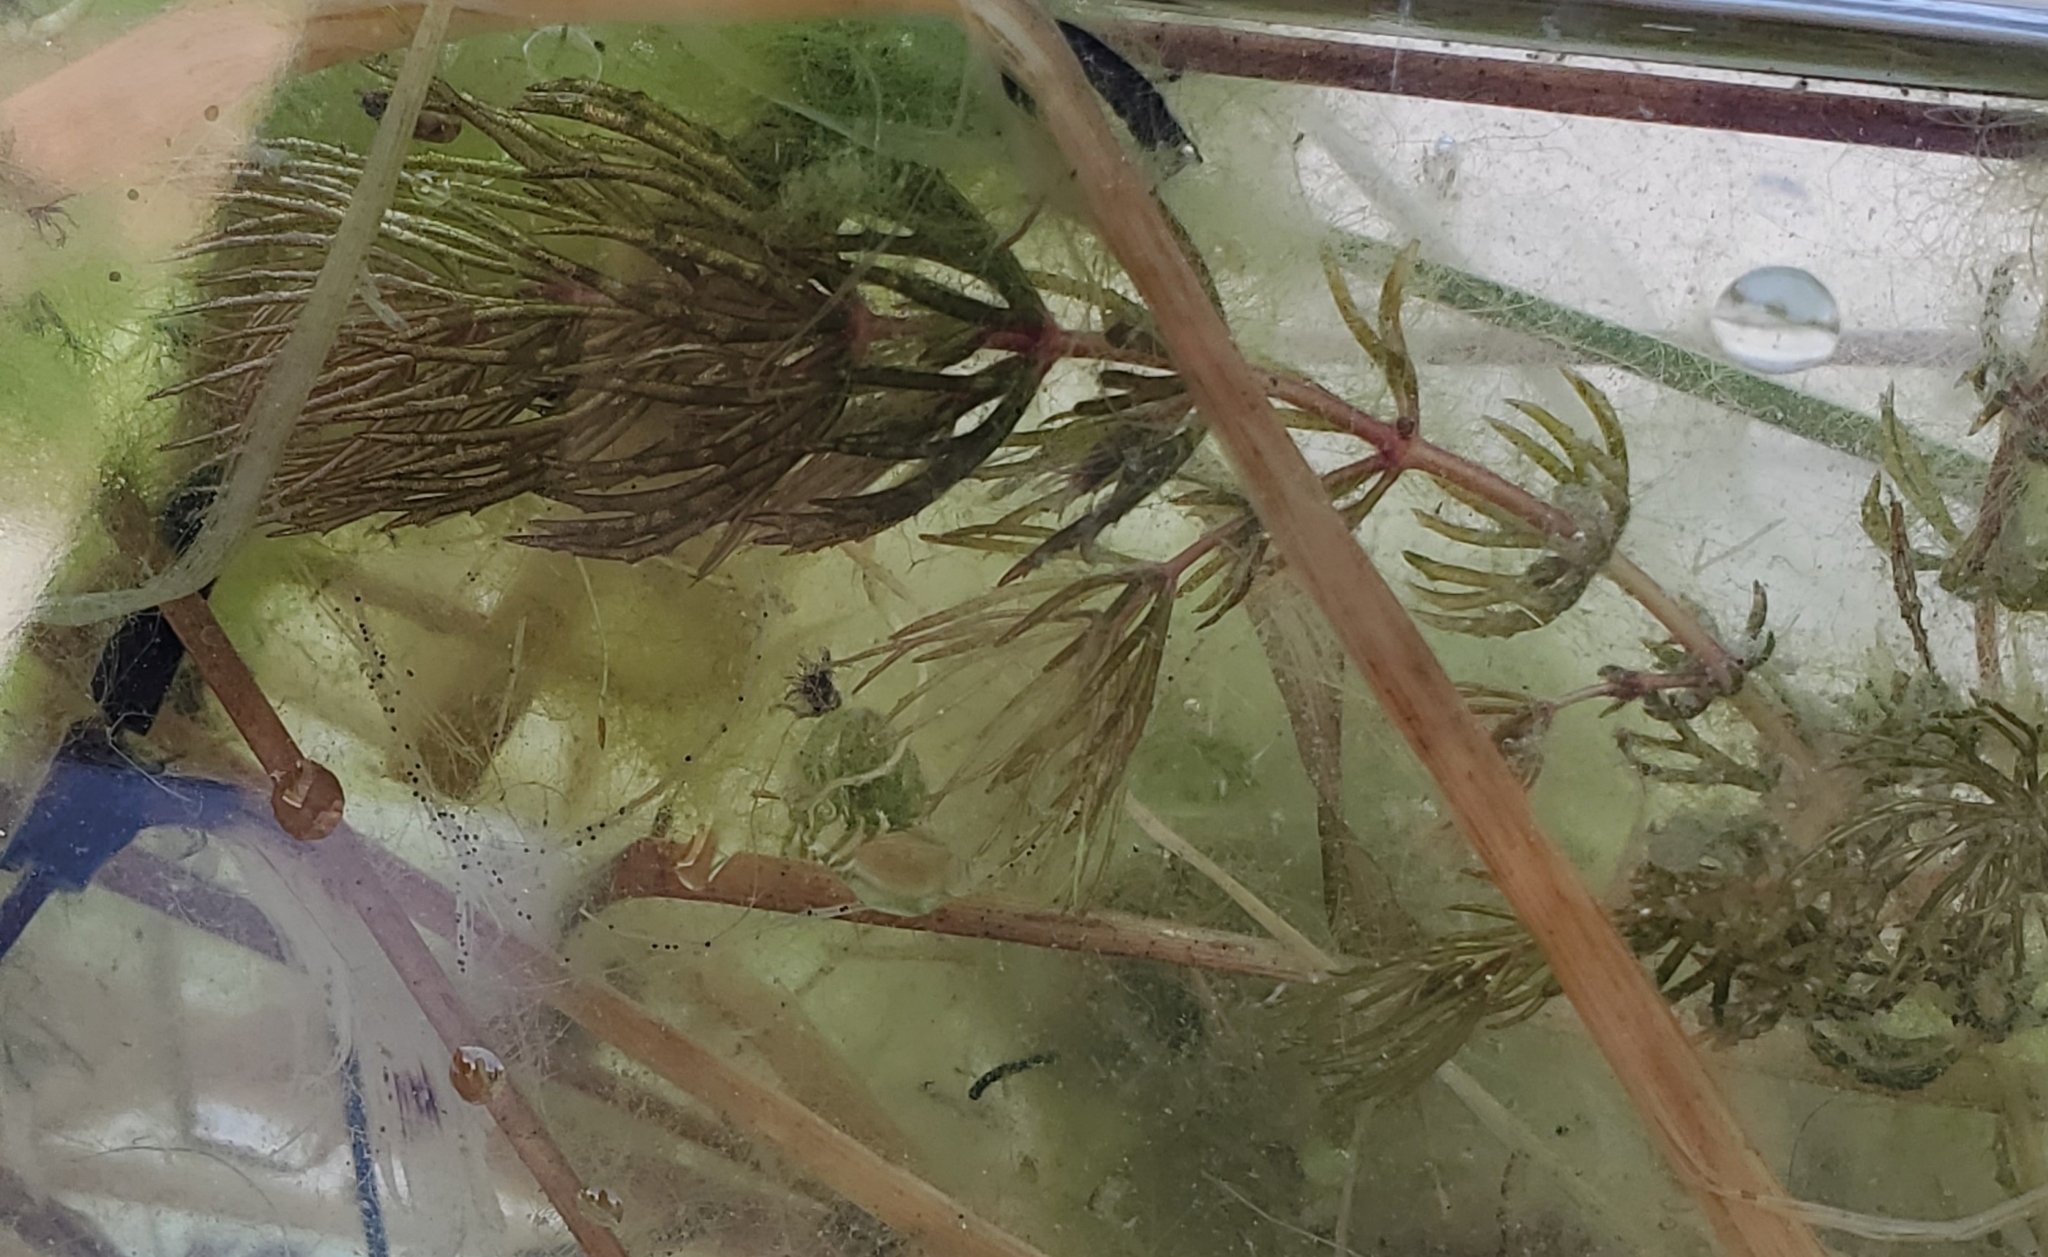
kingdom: Plantae
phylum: Tracheophyta
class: Magnoliopsida
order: Ceratophyllales
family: Ceratophyllaceae
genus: Ceratophyllum
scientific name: Ceratophyllum demersum
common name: Rigid hornwort
